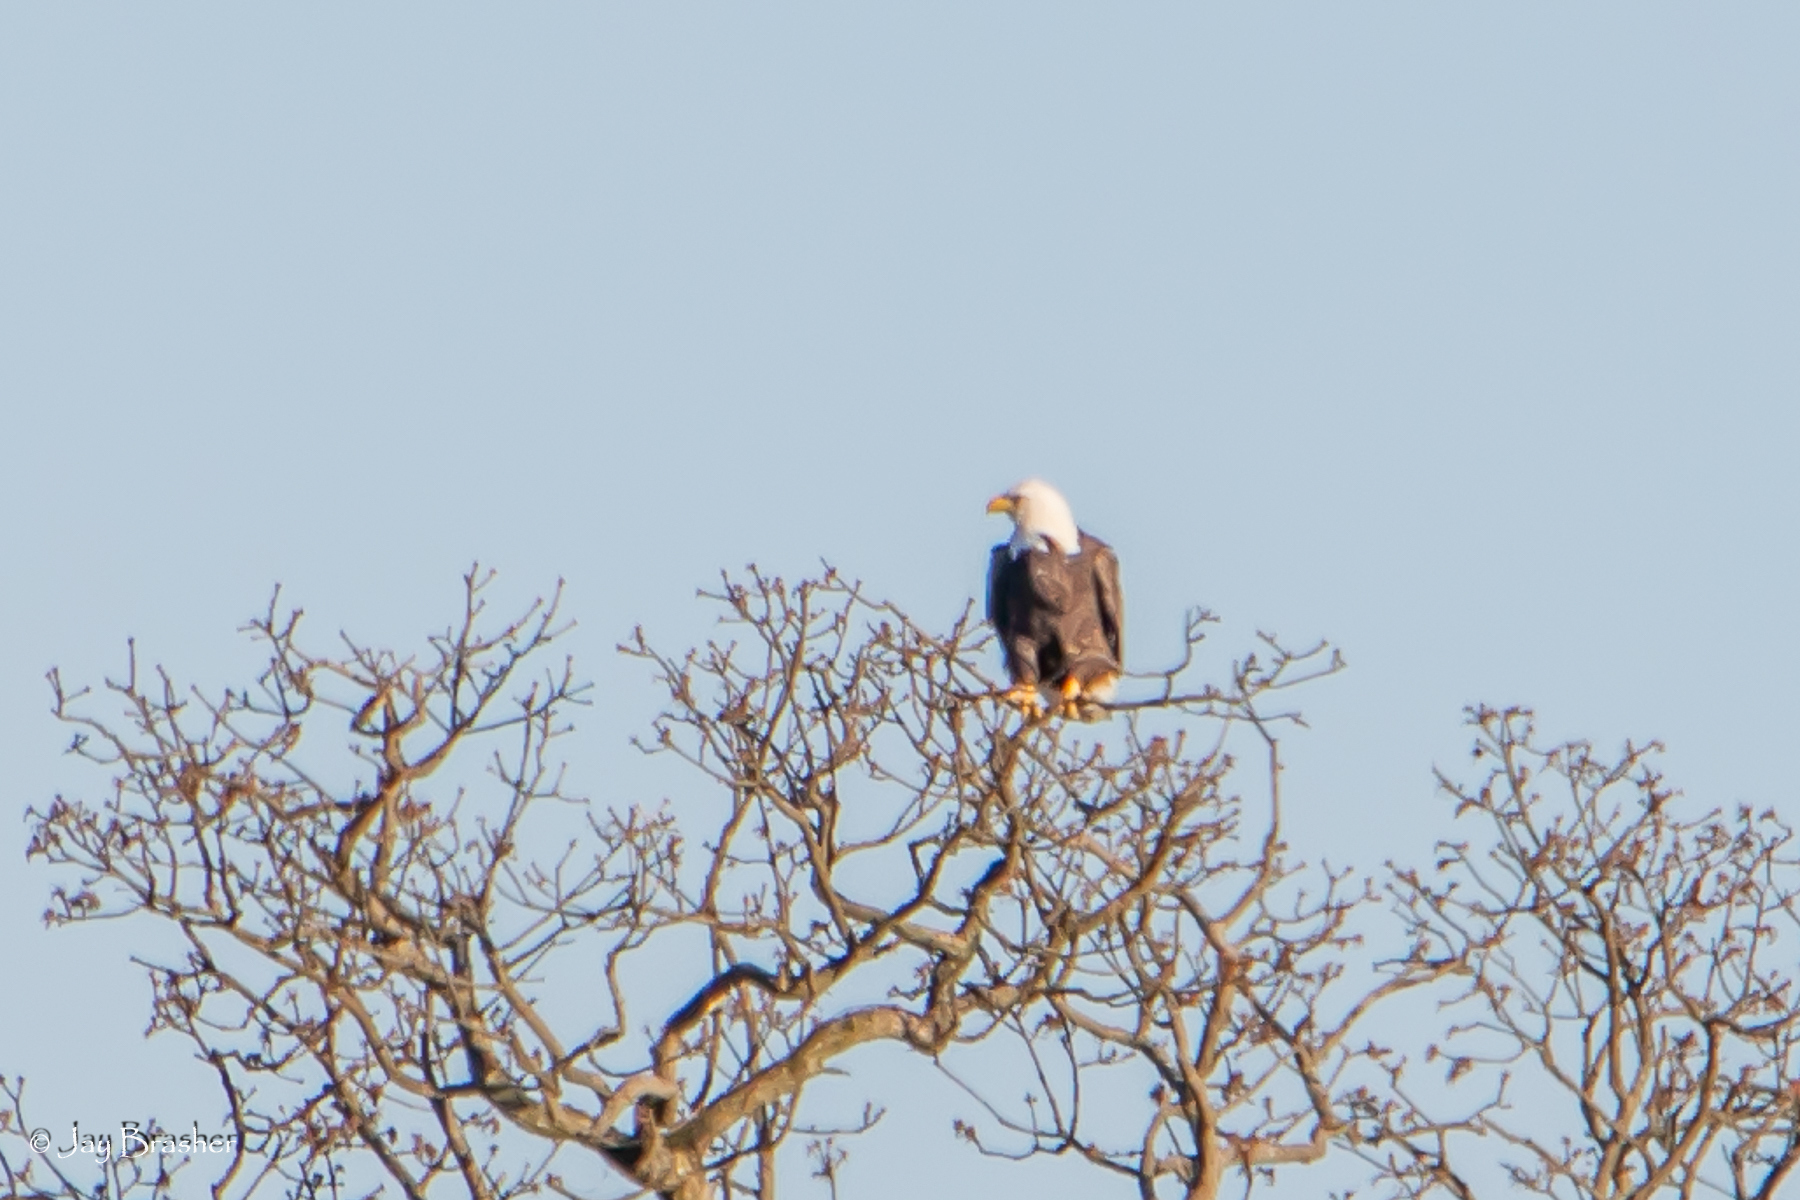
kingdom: Animalia
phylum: Chordata
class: Aves
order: Accipitriformes
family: Accipitridae
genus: Haliaeetus
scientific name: Haliaeetus leucocephalus
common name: Bald eagle
